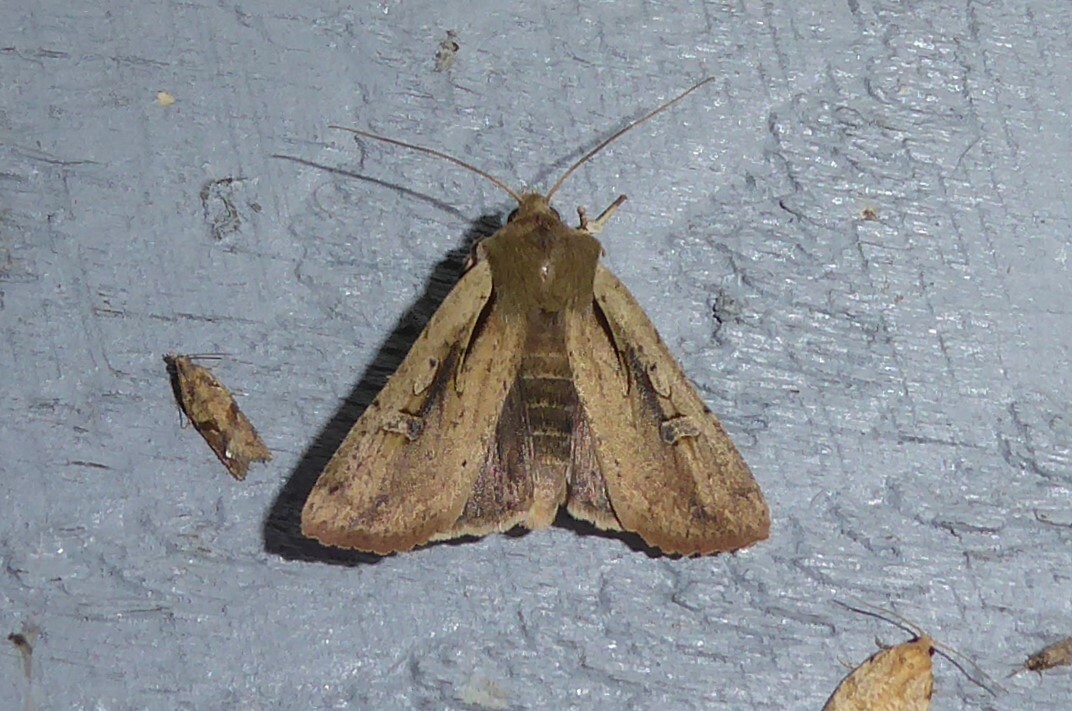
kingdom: Animalia
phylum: Arthropoda
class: Insecta
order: Lepidoptera
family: Noctuidae
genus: Ichneutica
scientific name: Ichneutica atristriga
